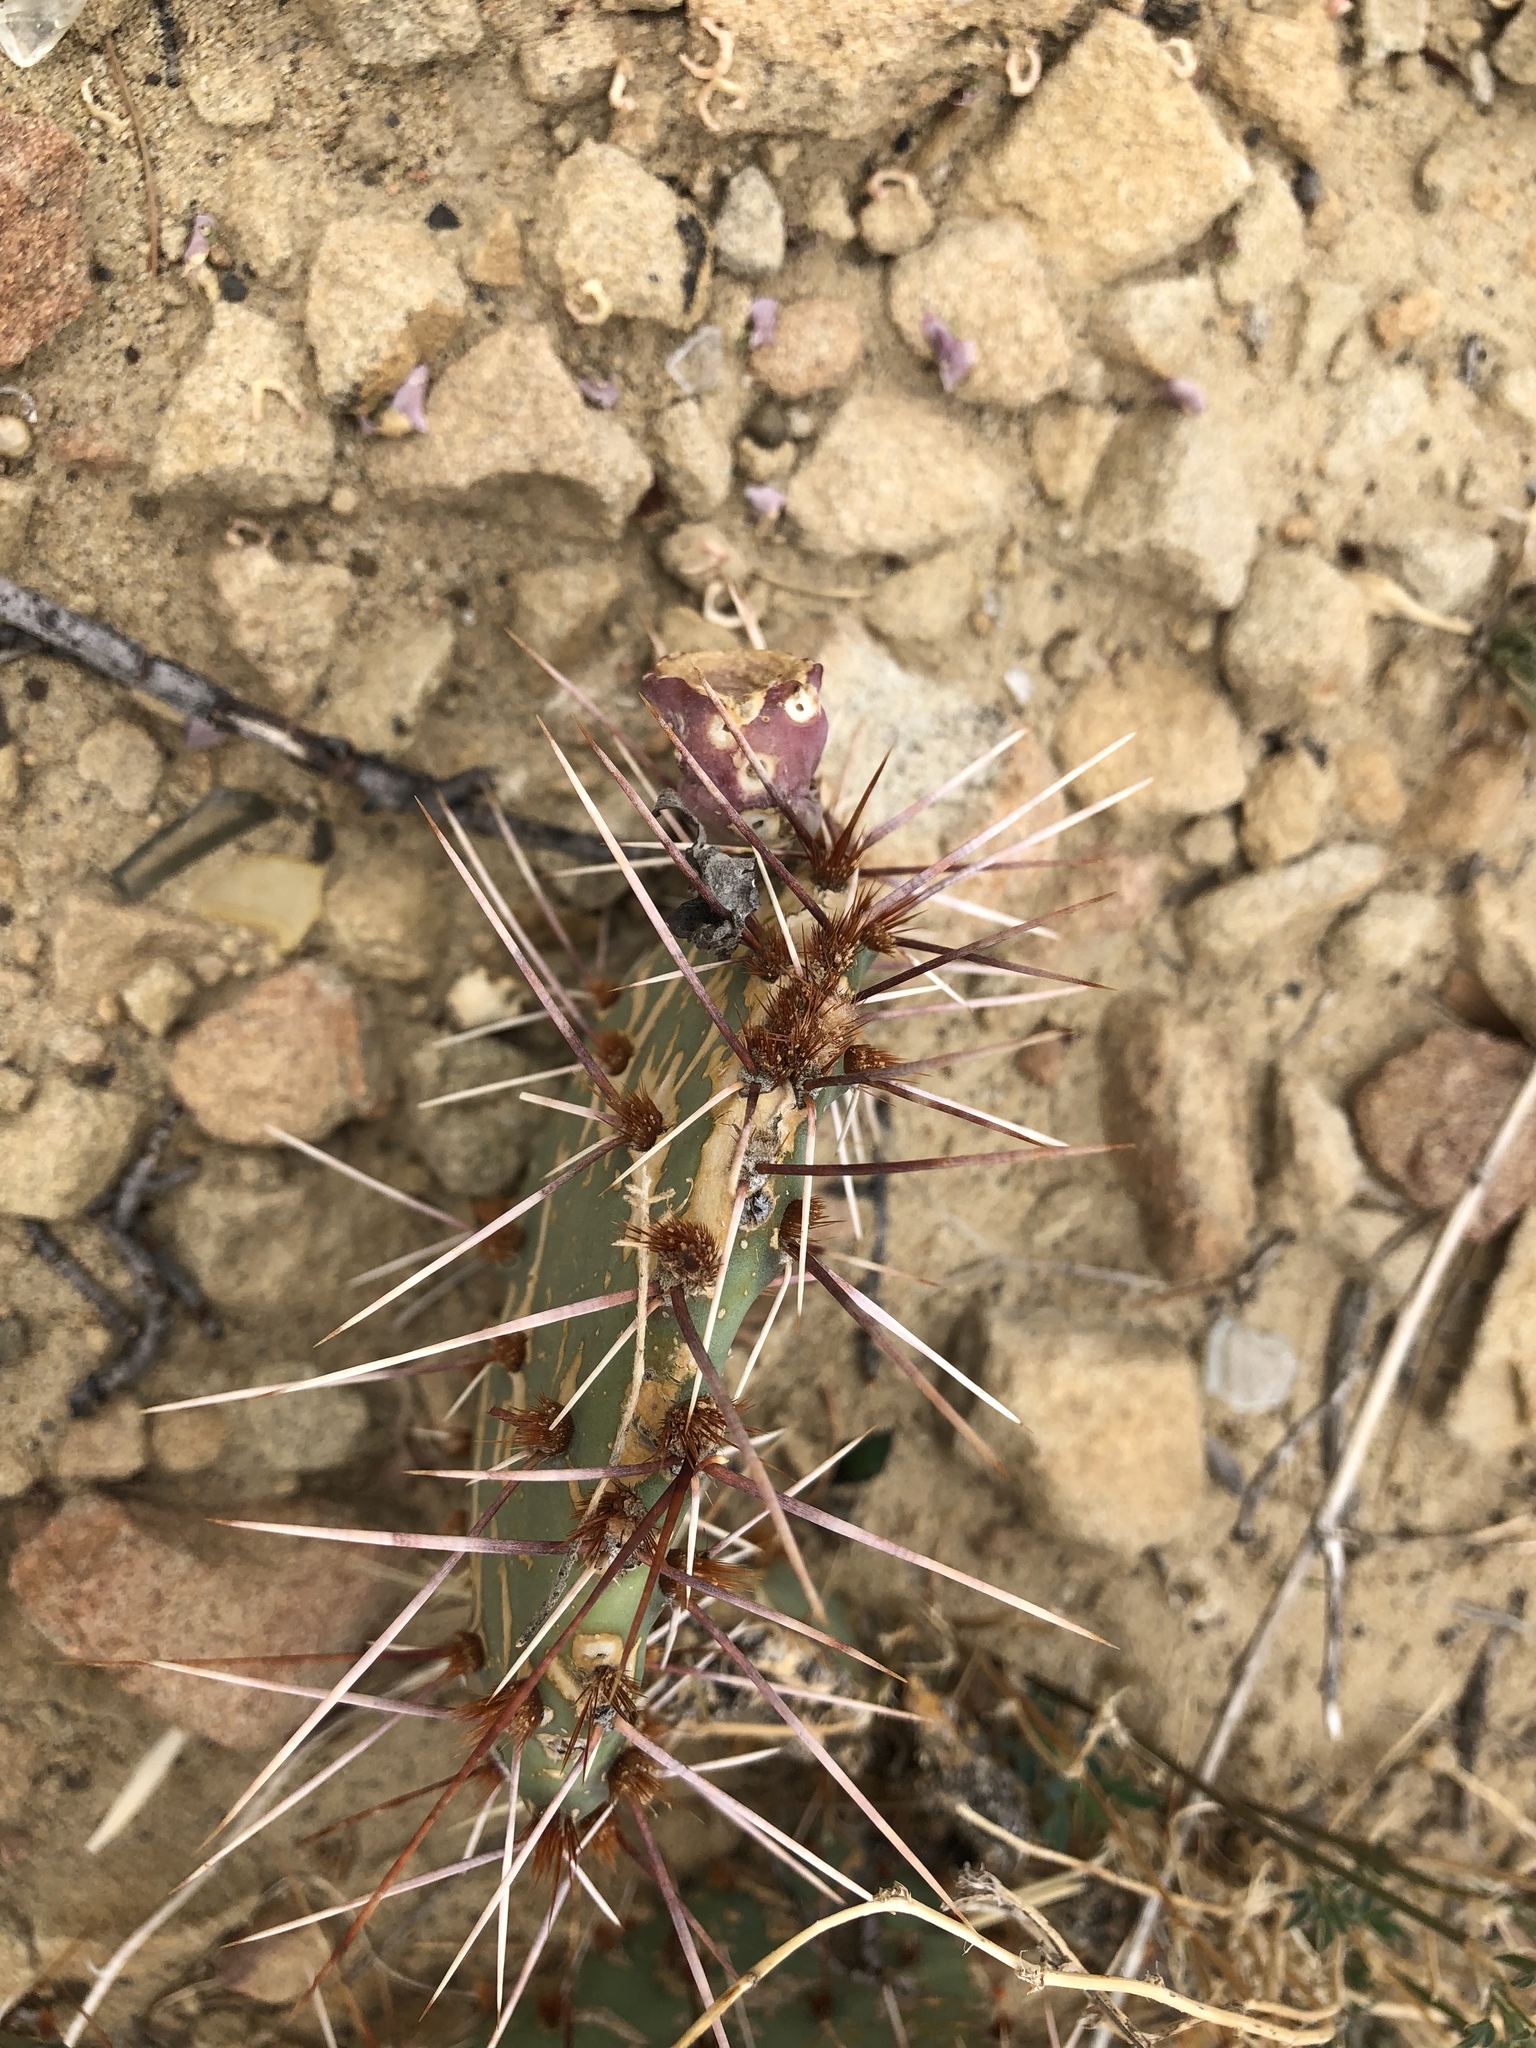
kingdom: Plantae
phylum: Tracheophyta
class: Magnoliopsida
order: Caryophyllales
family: Cactaceae
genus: Opuntia
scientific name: Opuntia polyacantha
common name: Plains prickly-pear
